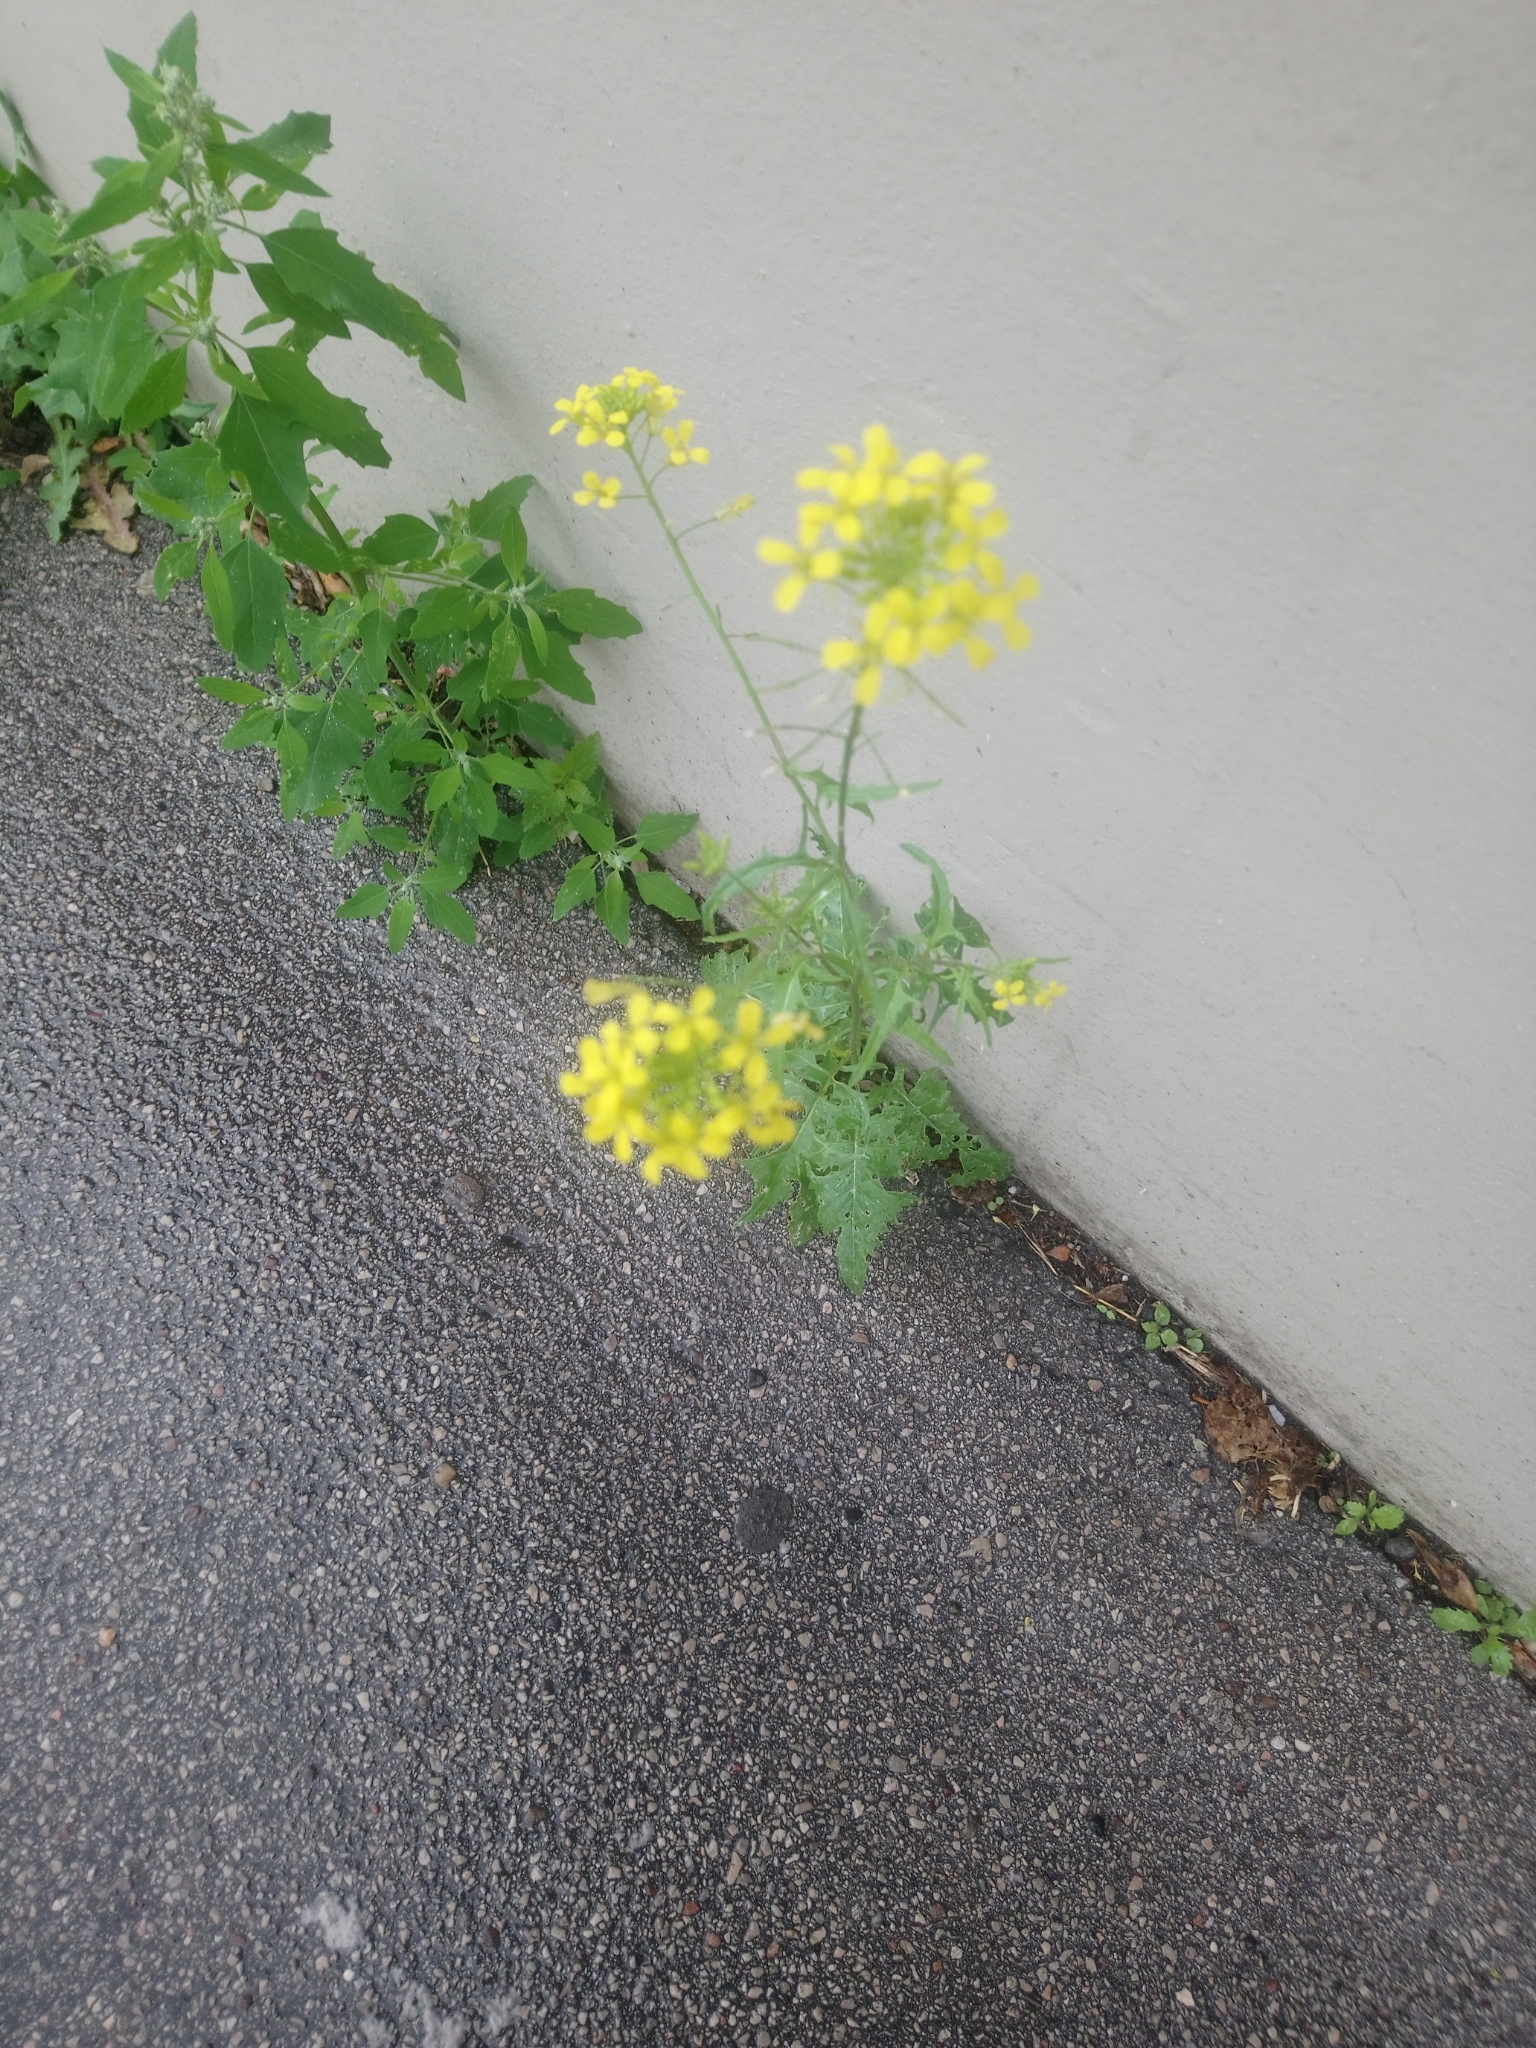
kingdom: Plantae
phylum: Tracheophyta
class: Magnoliopsida
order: Brassicales
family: Brassicaceae
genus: Sisymbrium
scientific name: Sisymbrium loeselii
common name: False london-rocket
